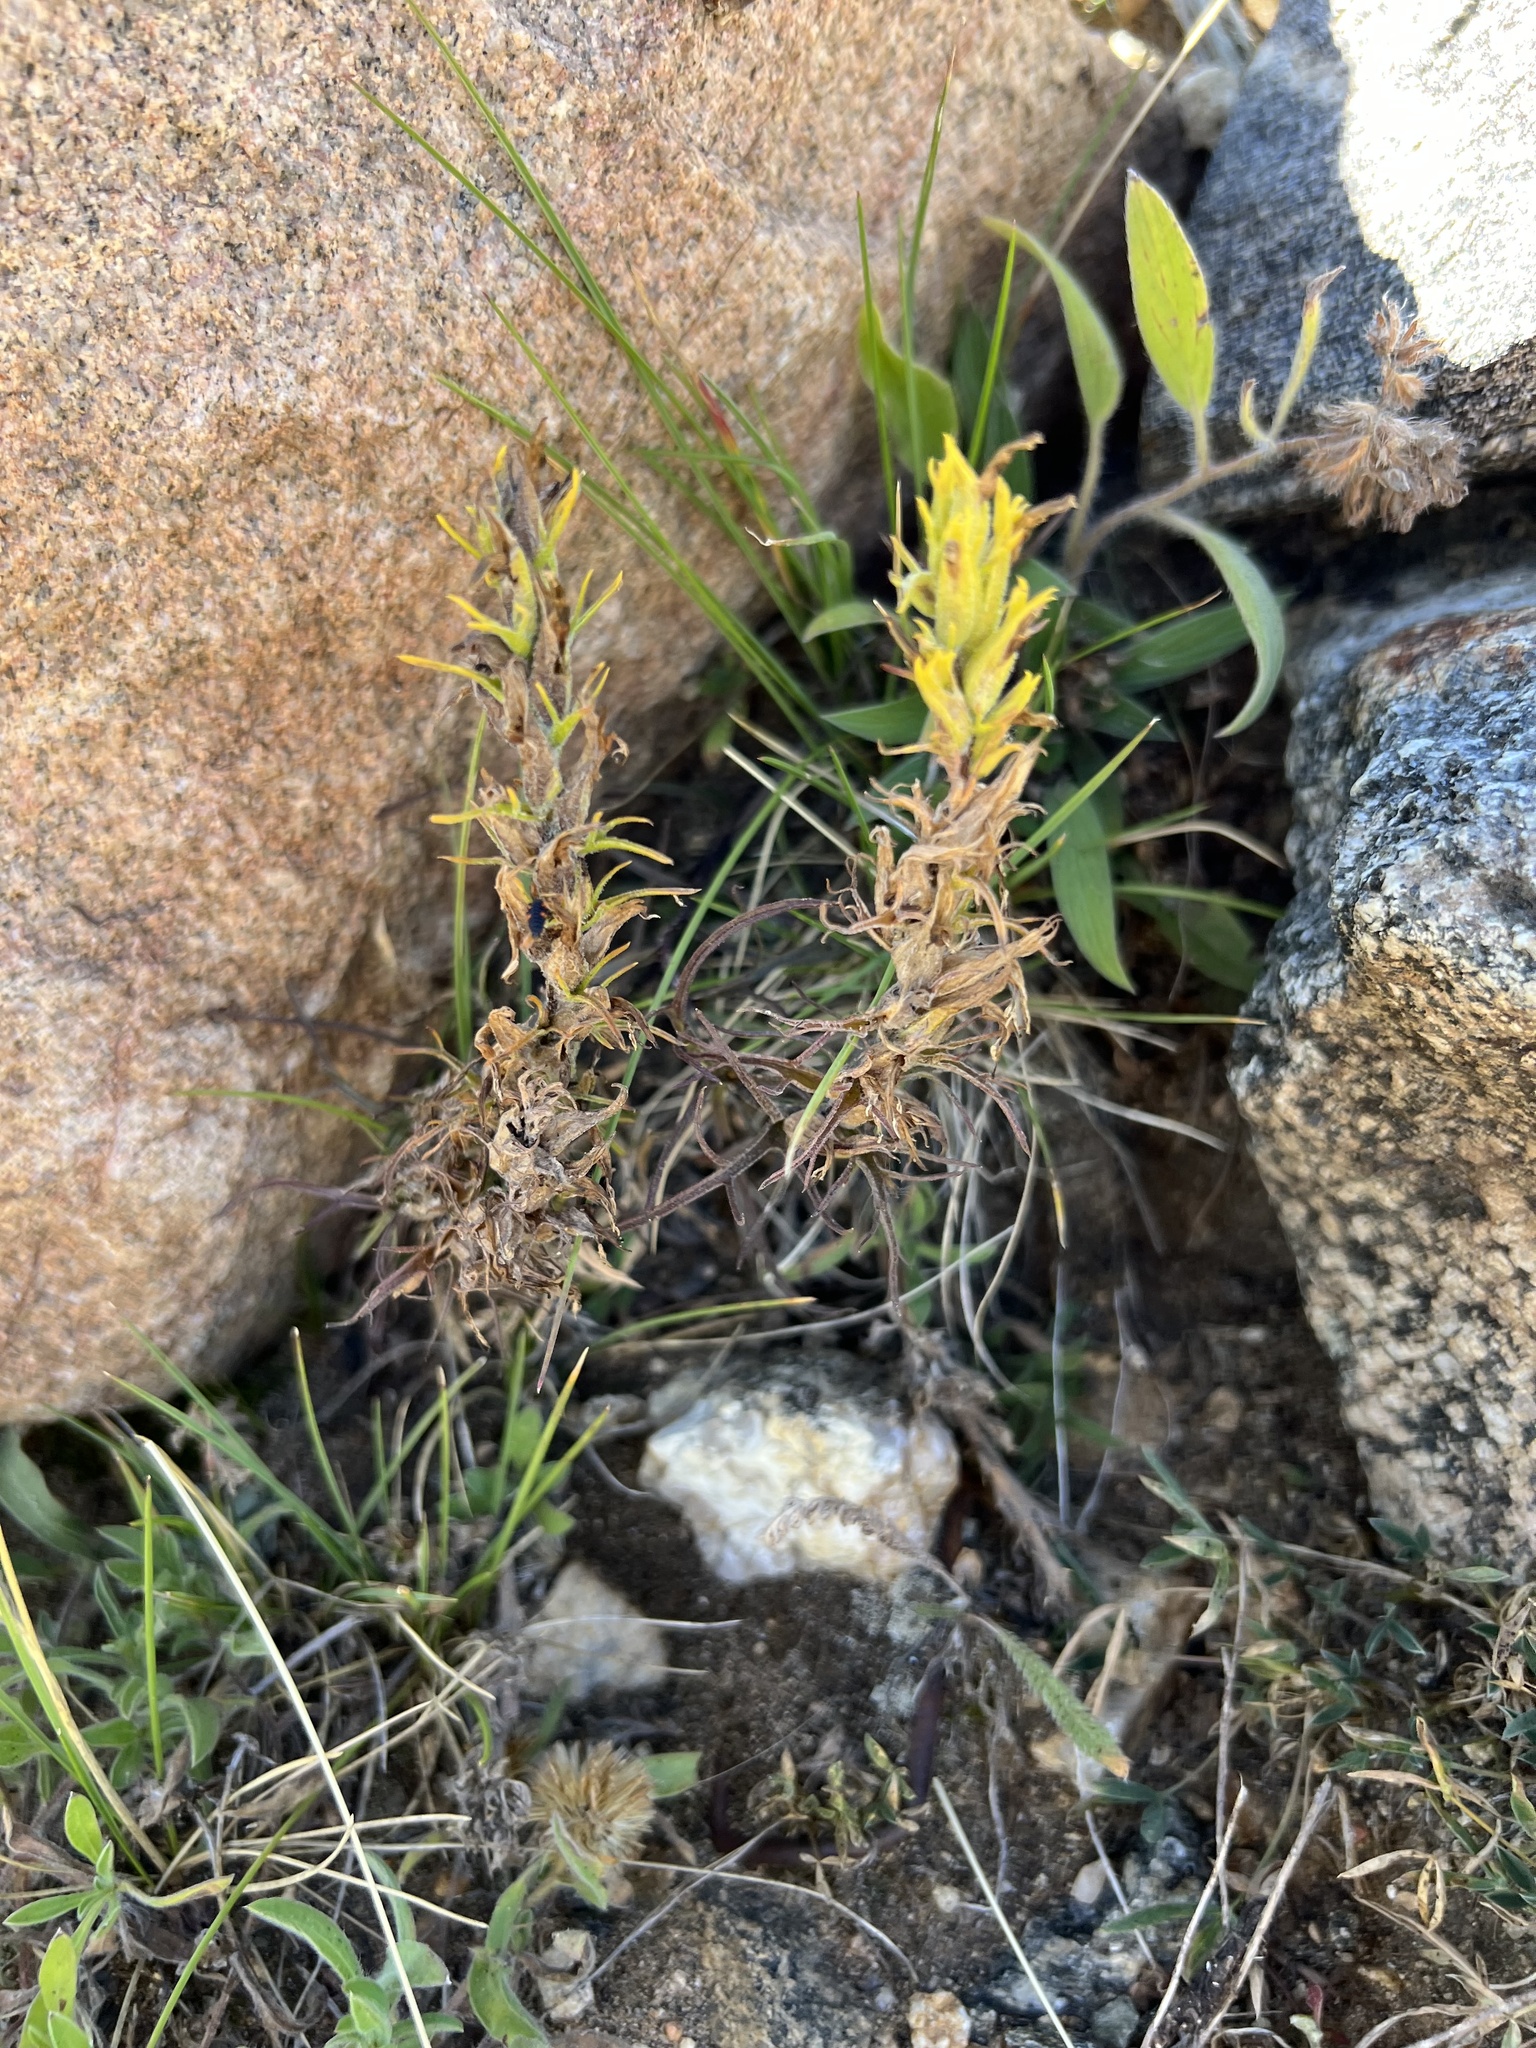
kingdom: Plantae
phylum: Tracheophyta
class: Magnoliopsida
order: Lamiales
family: Orobanchaceae
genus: Castilleja
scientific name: Castilleja puberula
